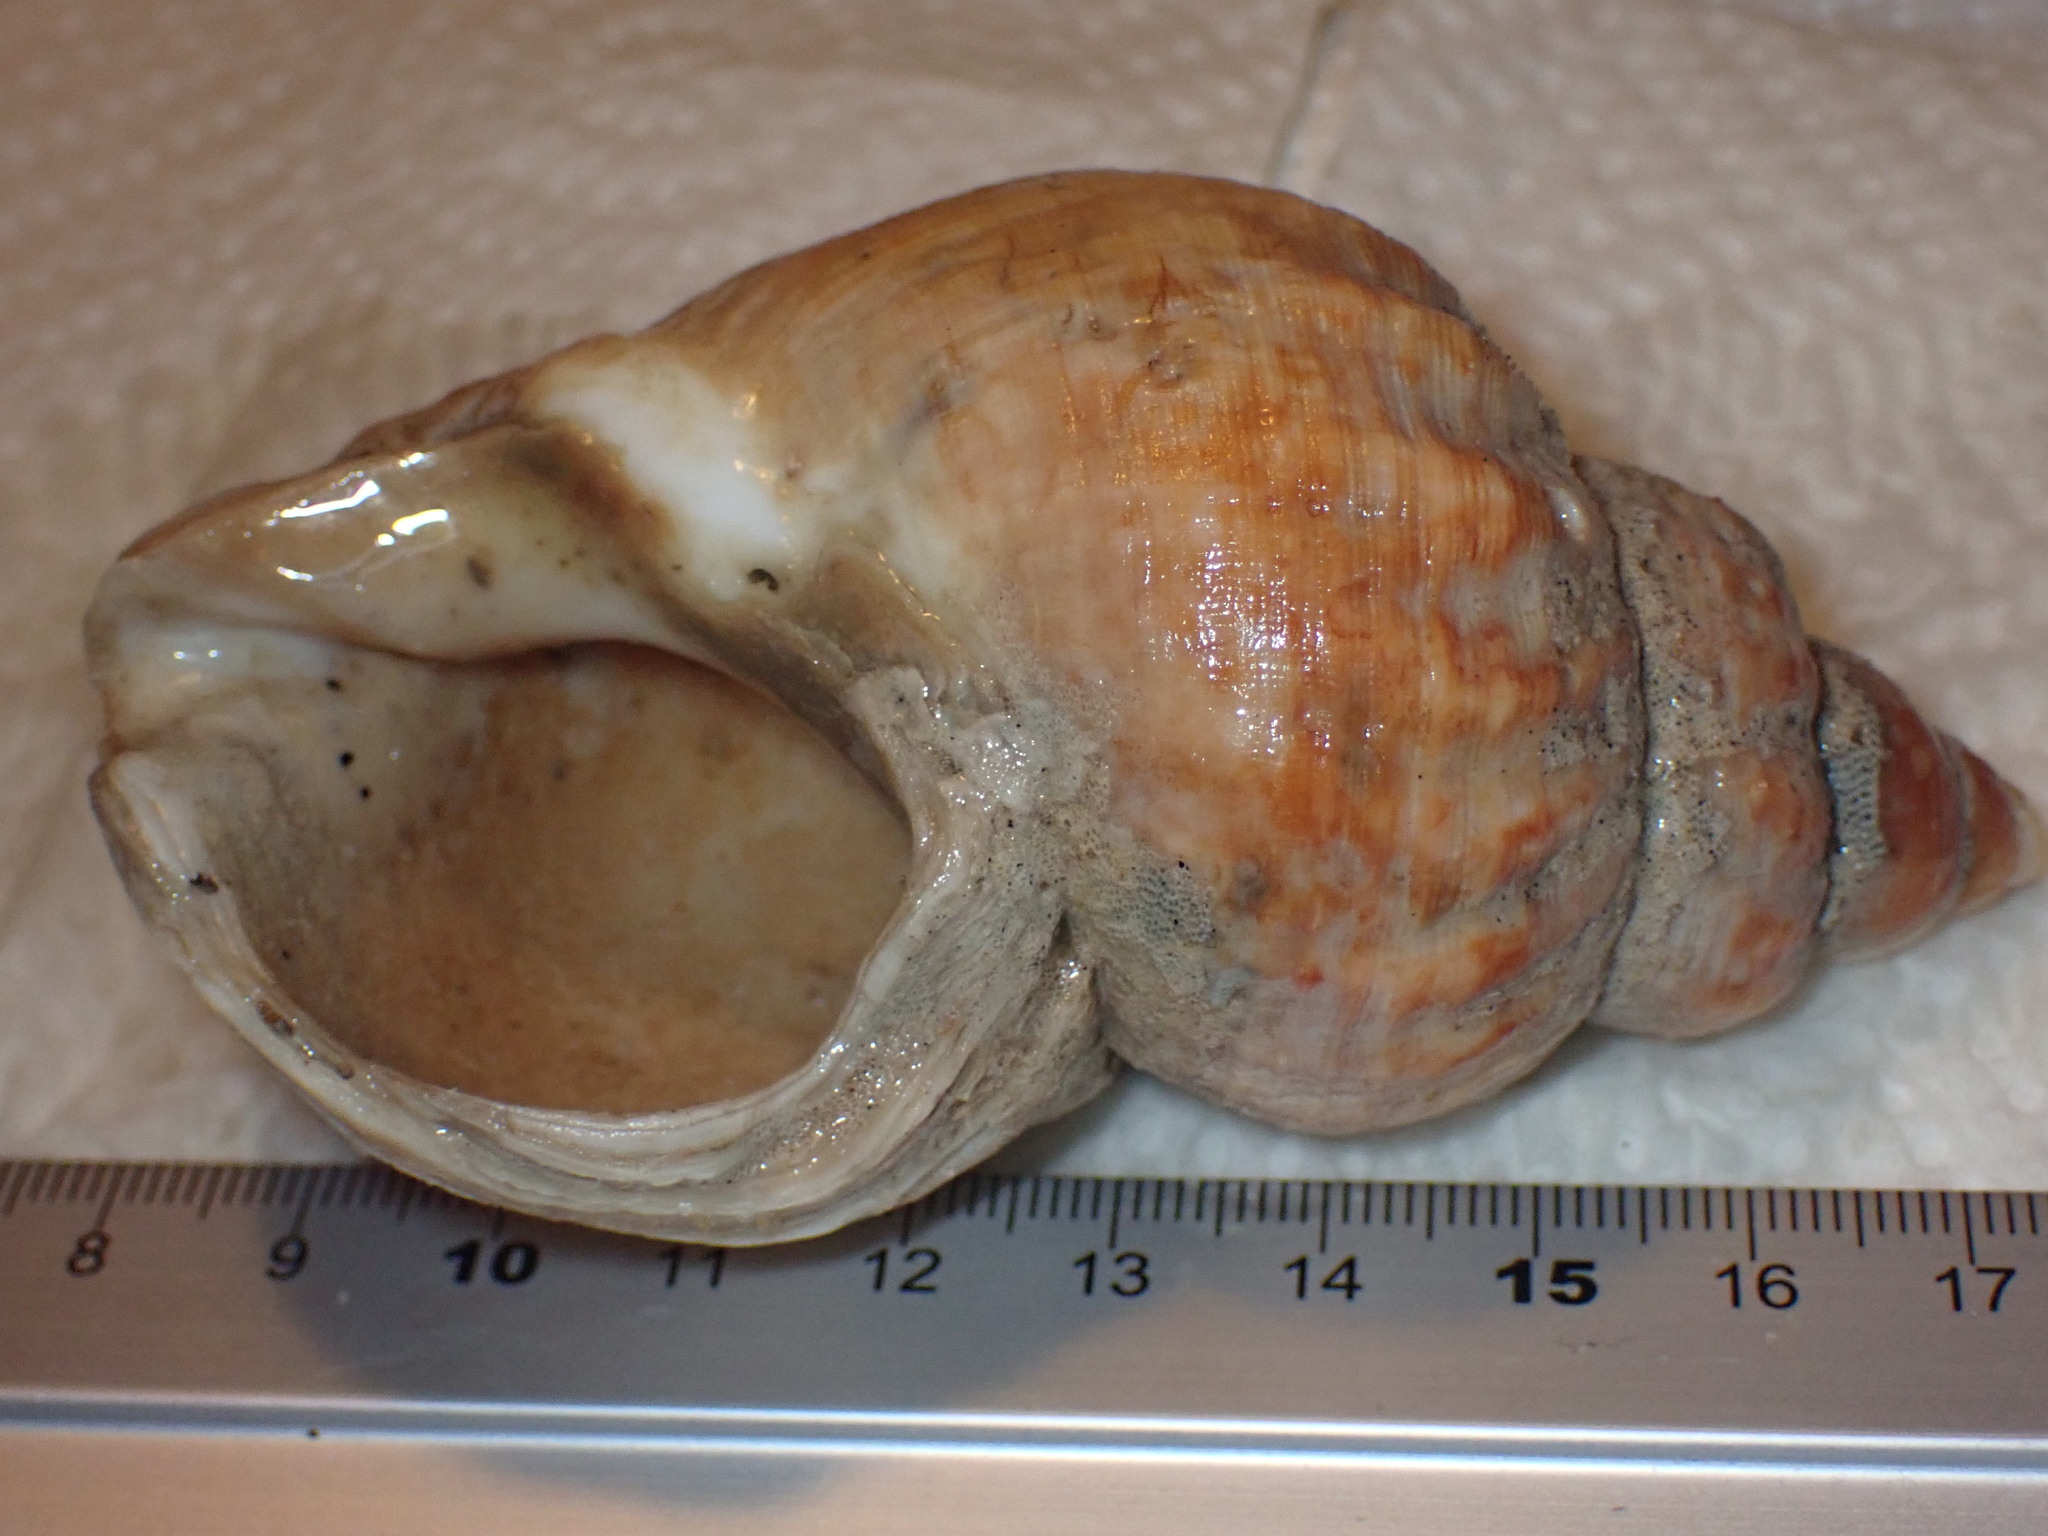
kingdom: Animalia
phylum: Mollusca
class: Gastropoda
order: Neogastropoda
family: Buccinidae
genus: Buccinum
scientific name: Buccinum undatum
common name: Common whelk
